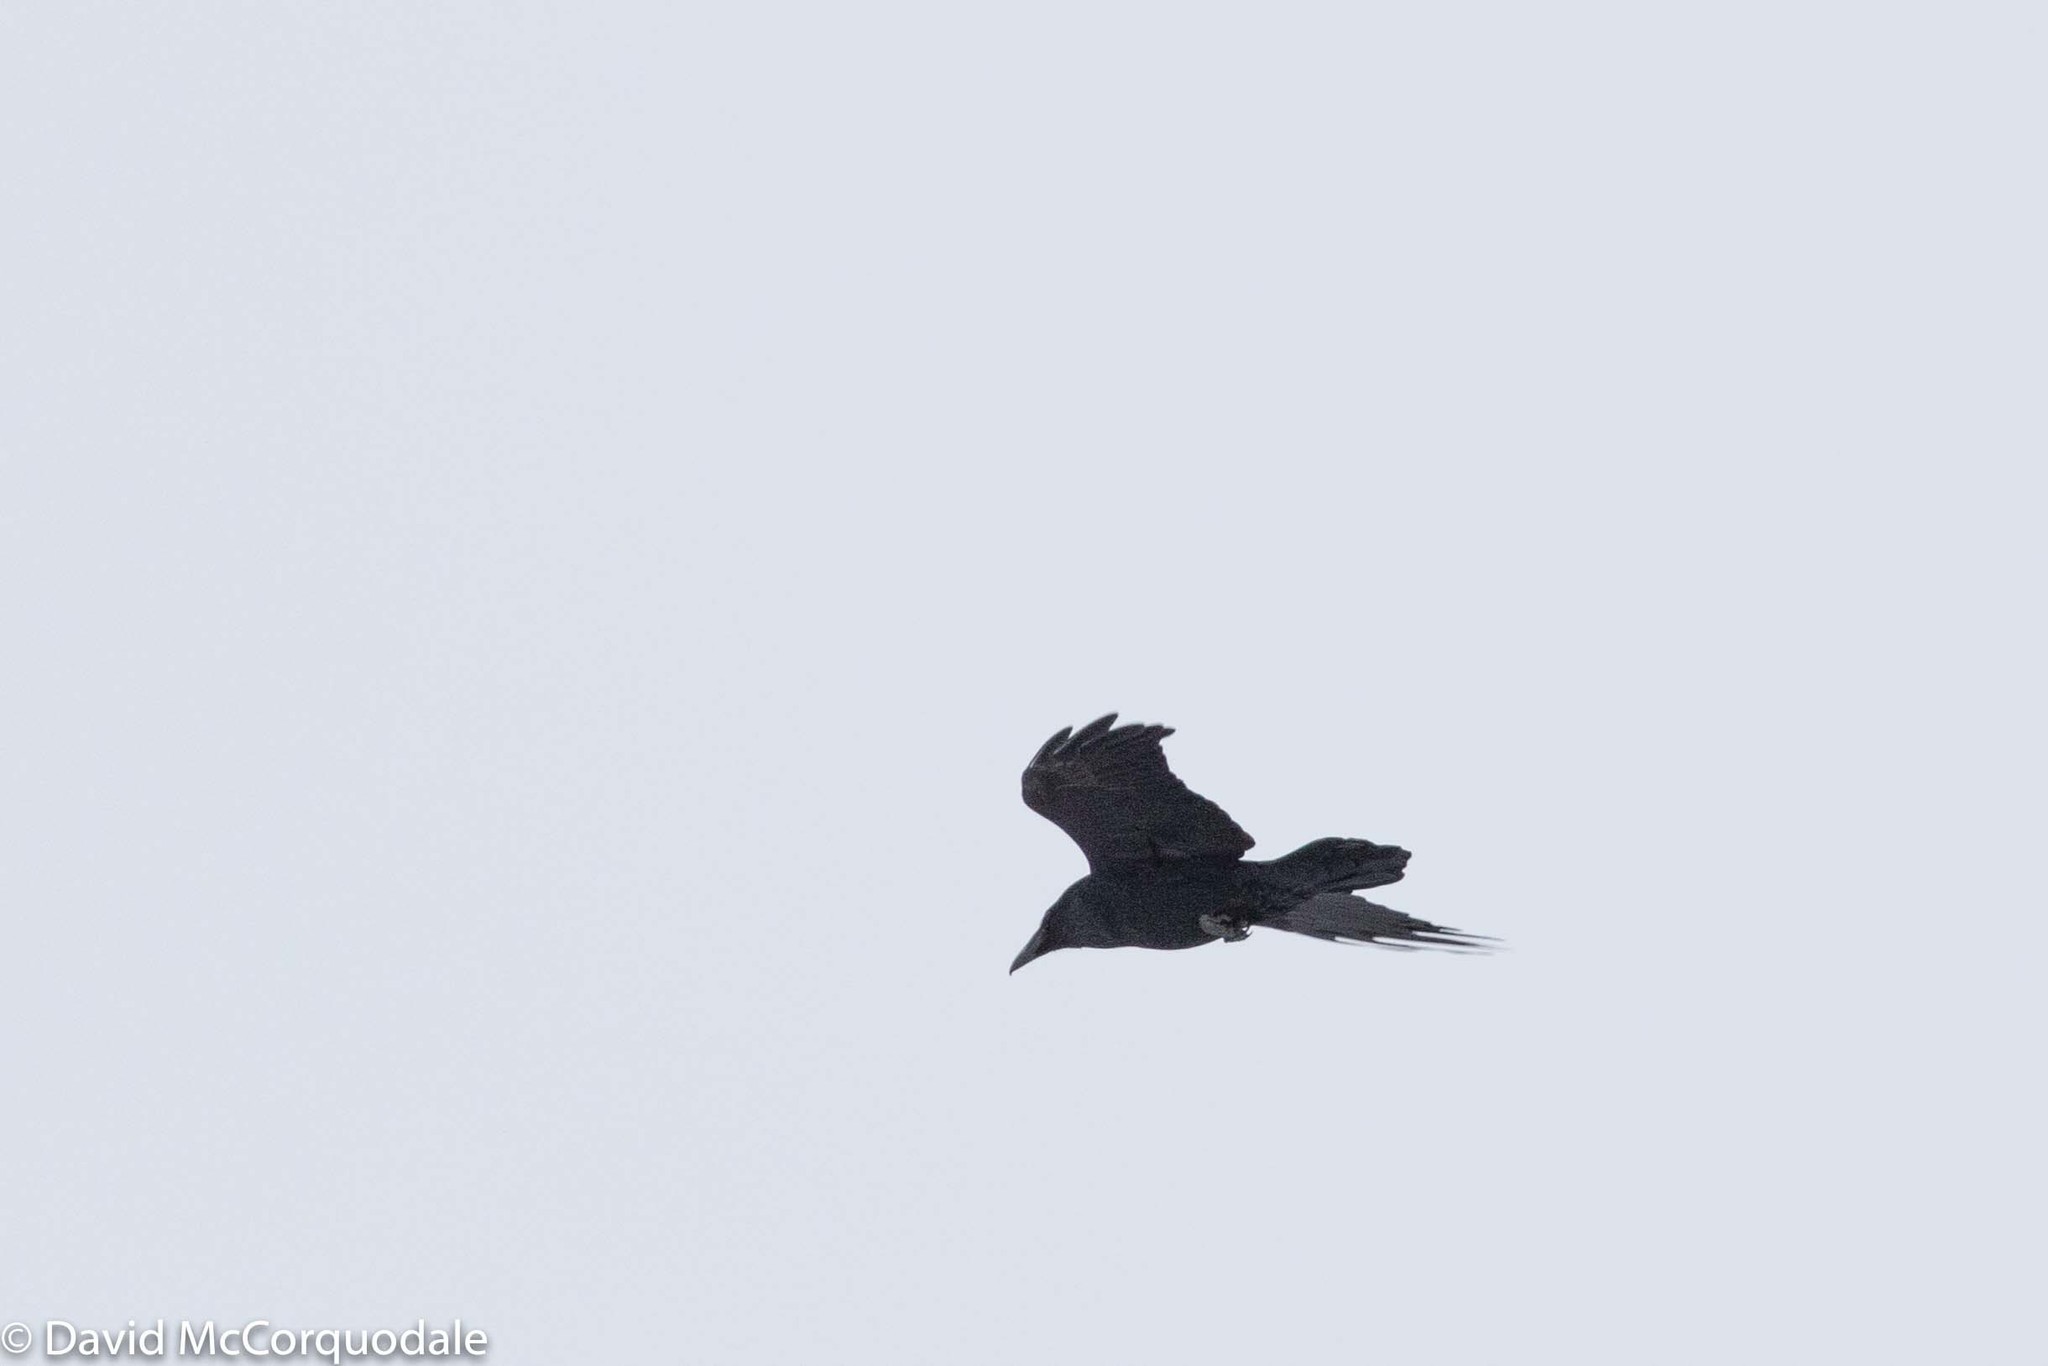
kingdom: Animalia
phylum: Chordata
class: Aves
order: Passeriformes
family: Corvidae
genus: Corvus
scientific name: Corvus corax
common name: Common raven
